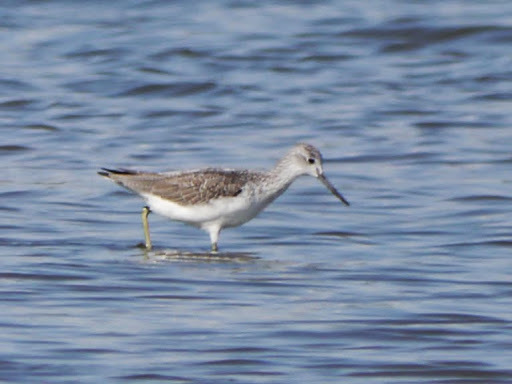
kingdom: Animalia
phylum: Chordata
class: Aves
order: Charadriiformes
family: Scolopacidae
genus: Tringa
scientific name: Tringa nebularia
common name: Common greenshank
